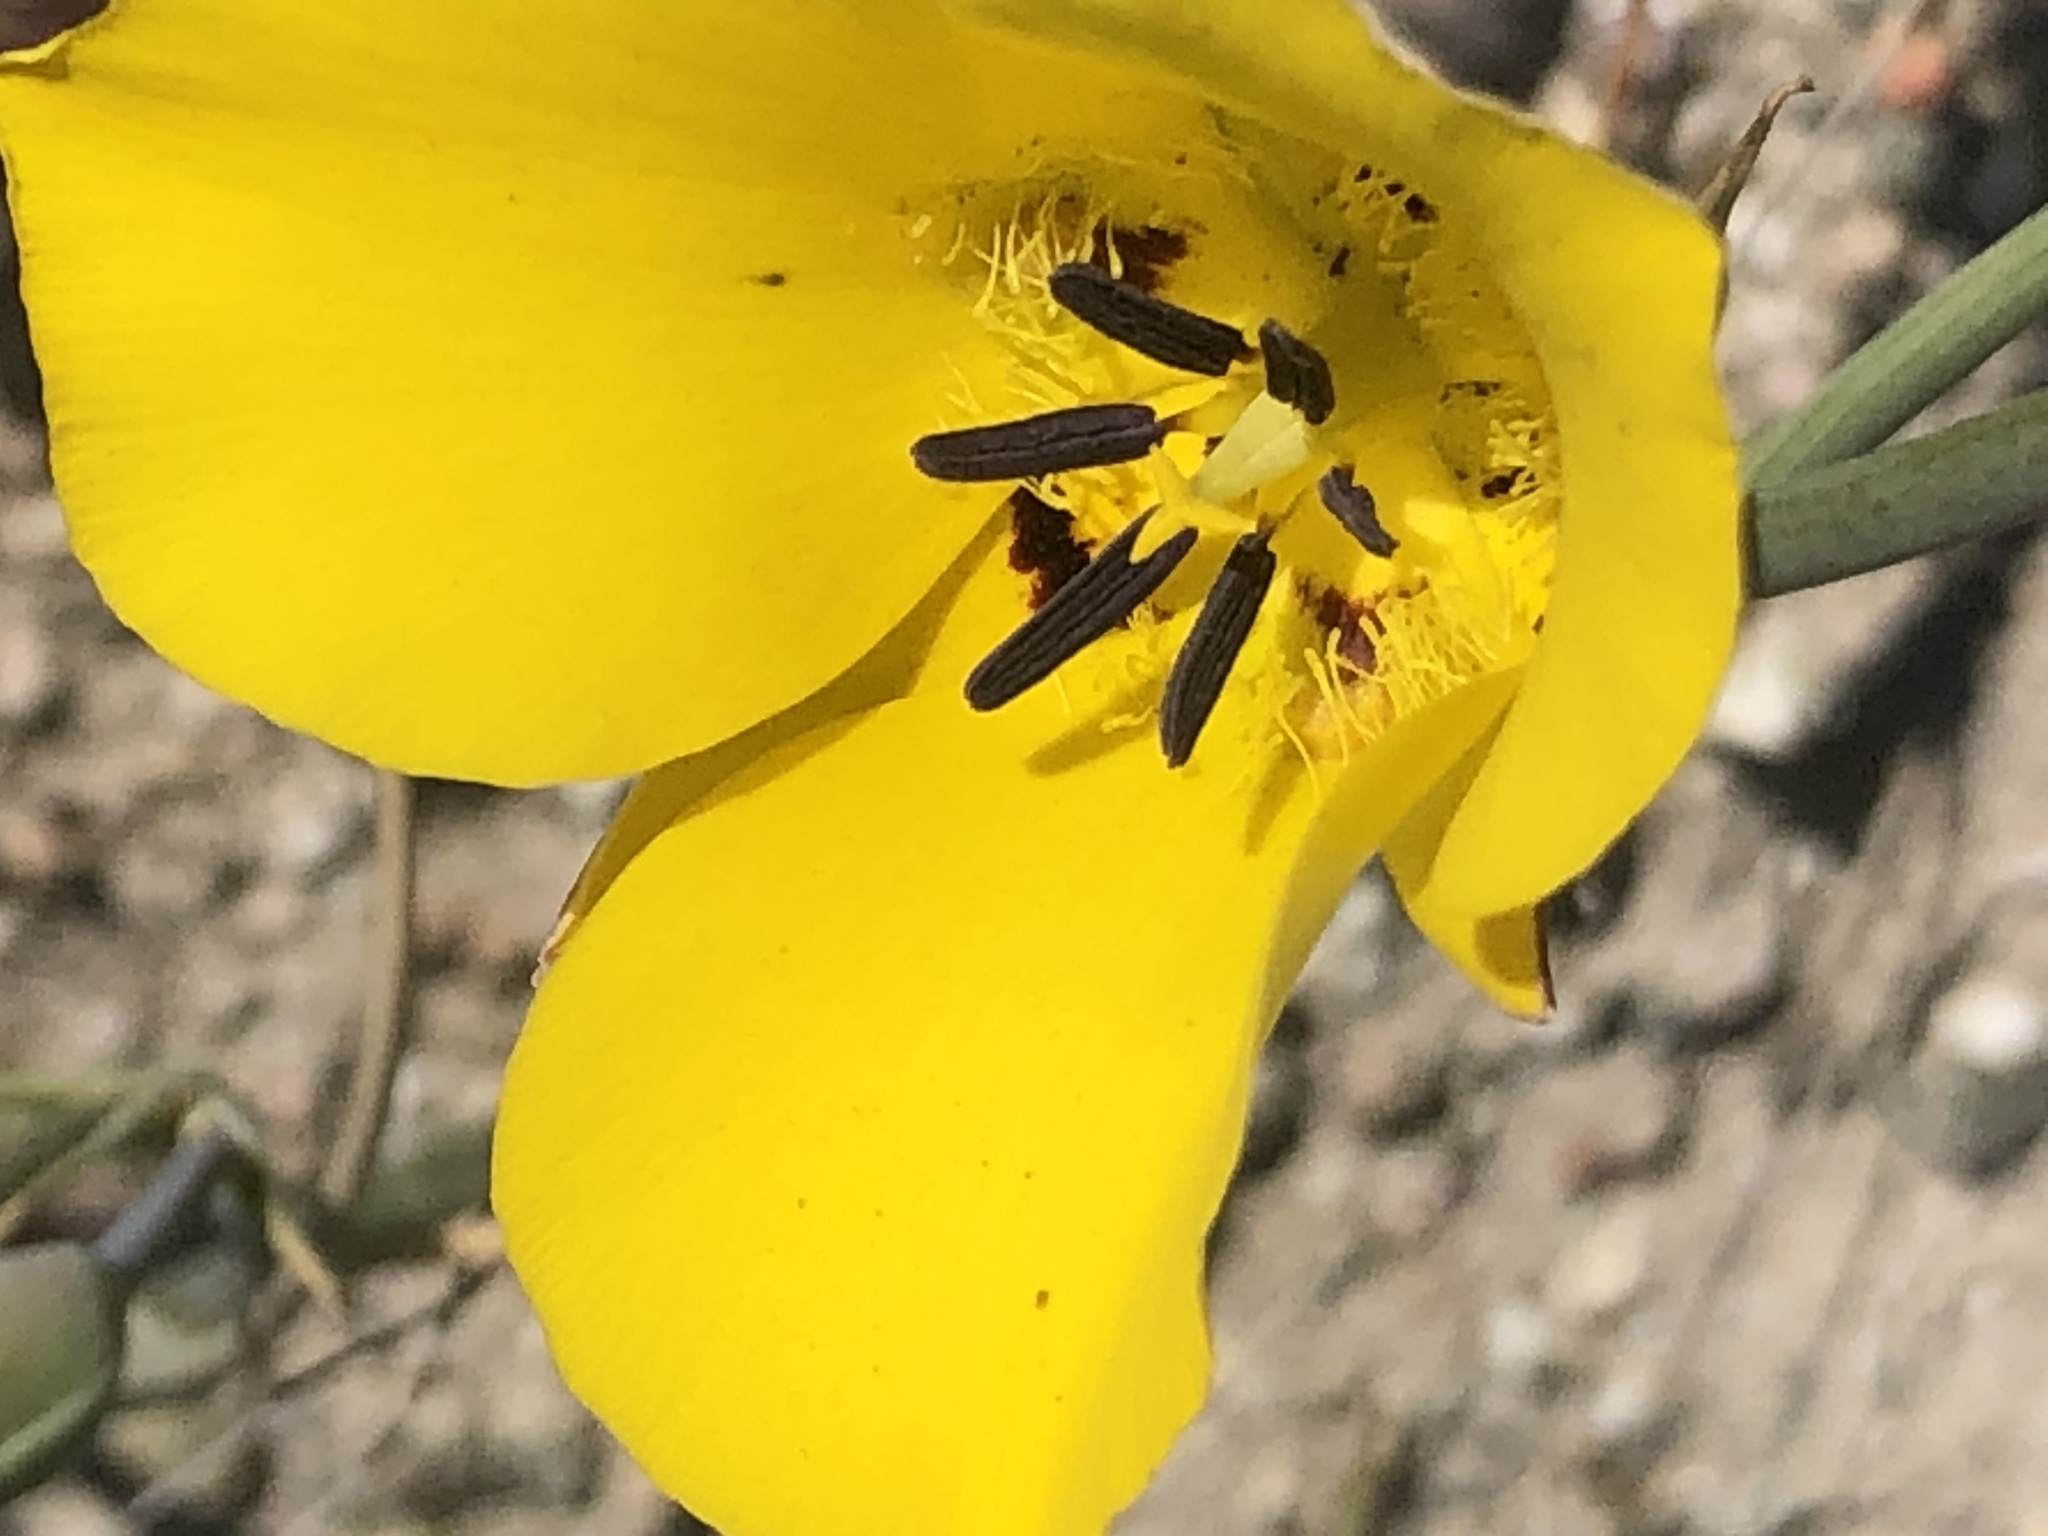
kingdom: Plantae
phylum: Tracheophyta
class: Liliopsida
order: Liliales
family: Liliaceae
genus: Calochortus
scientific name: Calochortus clavatus
